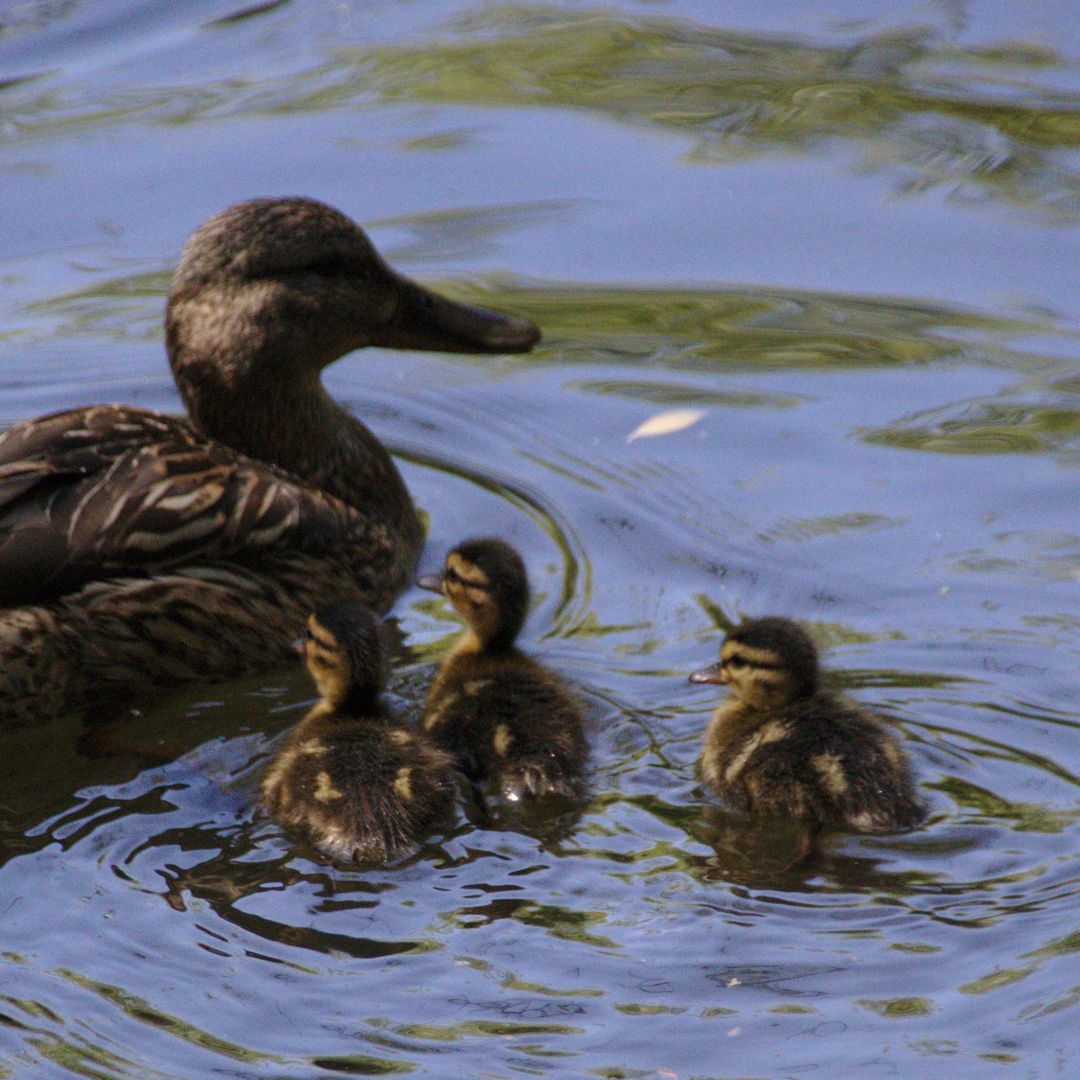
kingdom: Animalia
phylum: Chordata
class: Aves
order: Anseriformes
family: Anatidae
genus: Anas
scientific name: Anas platyrhynchos
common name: Mallard
